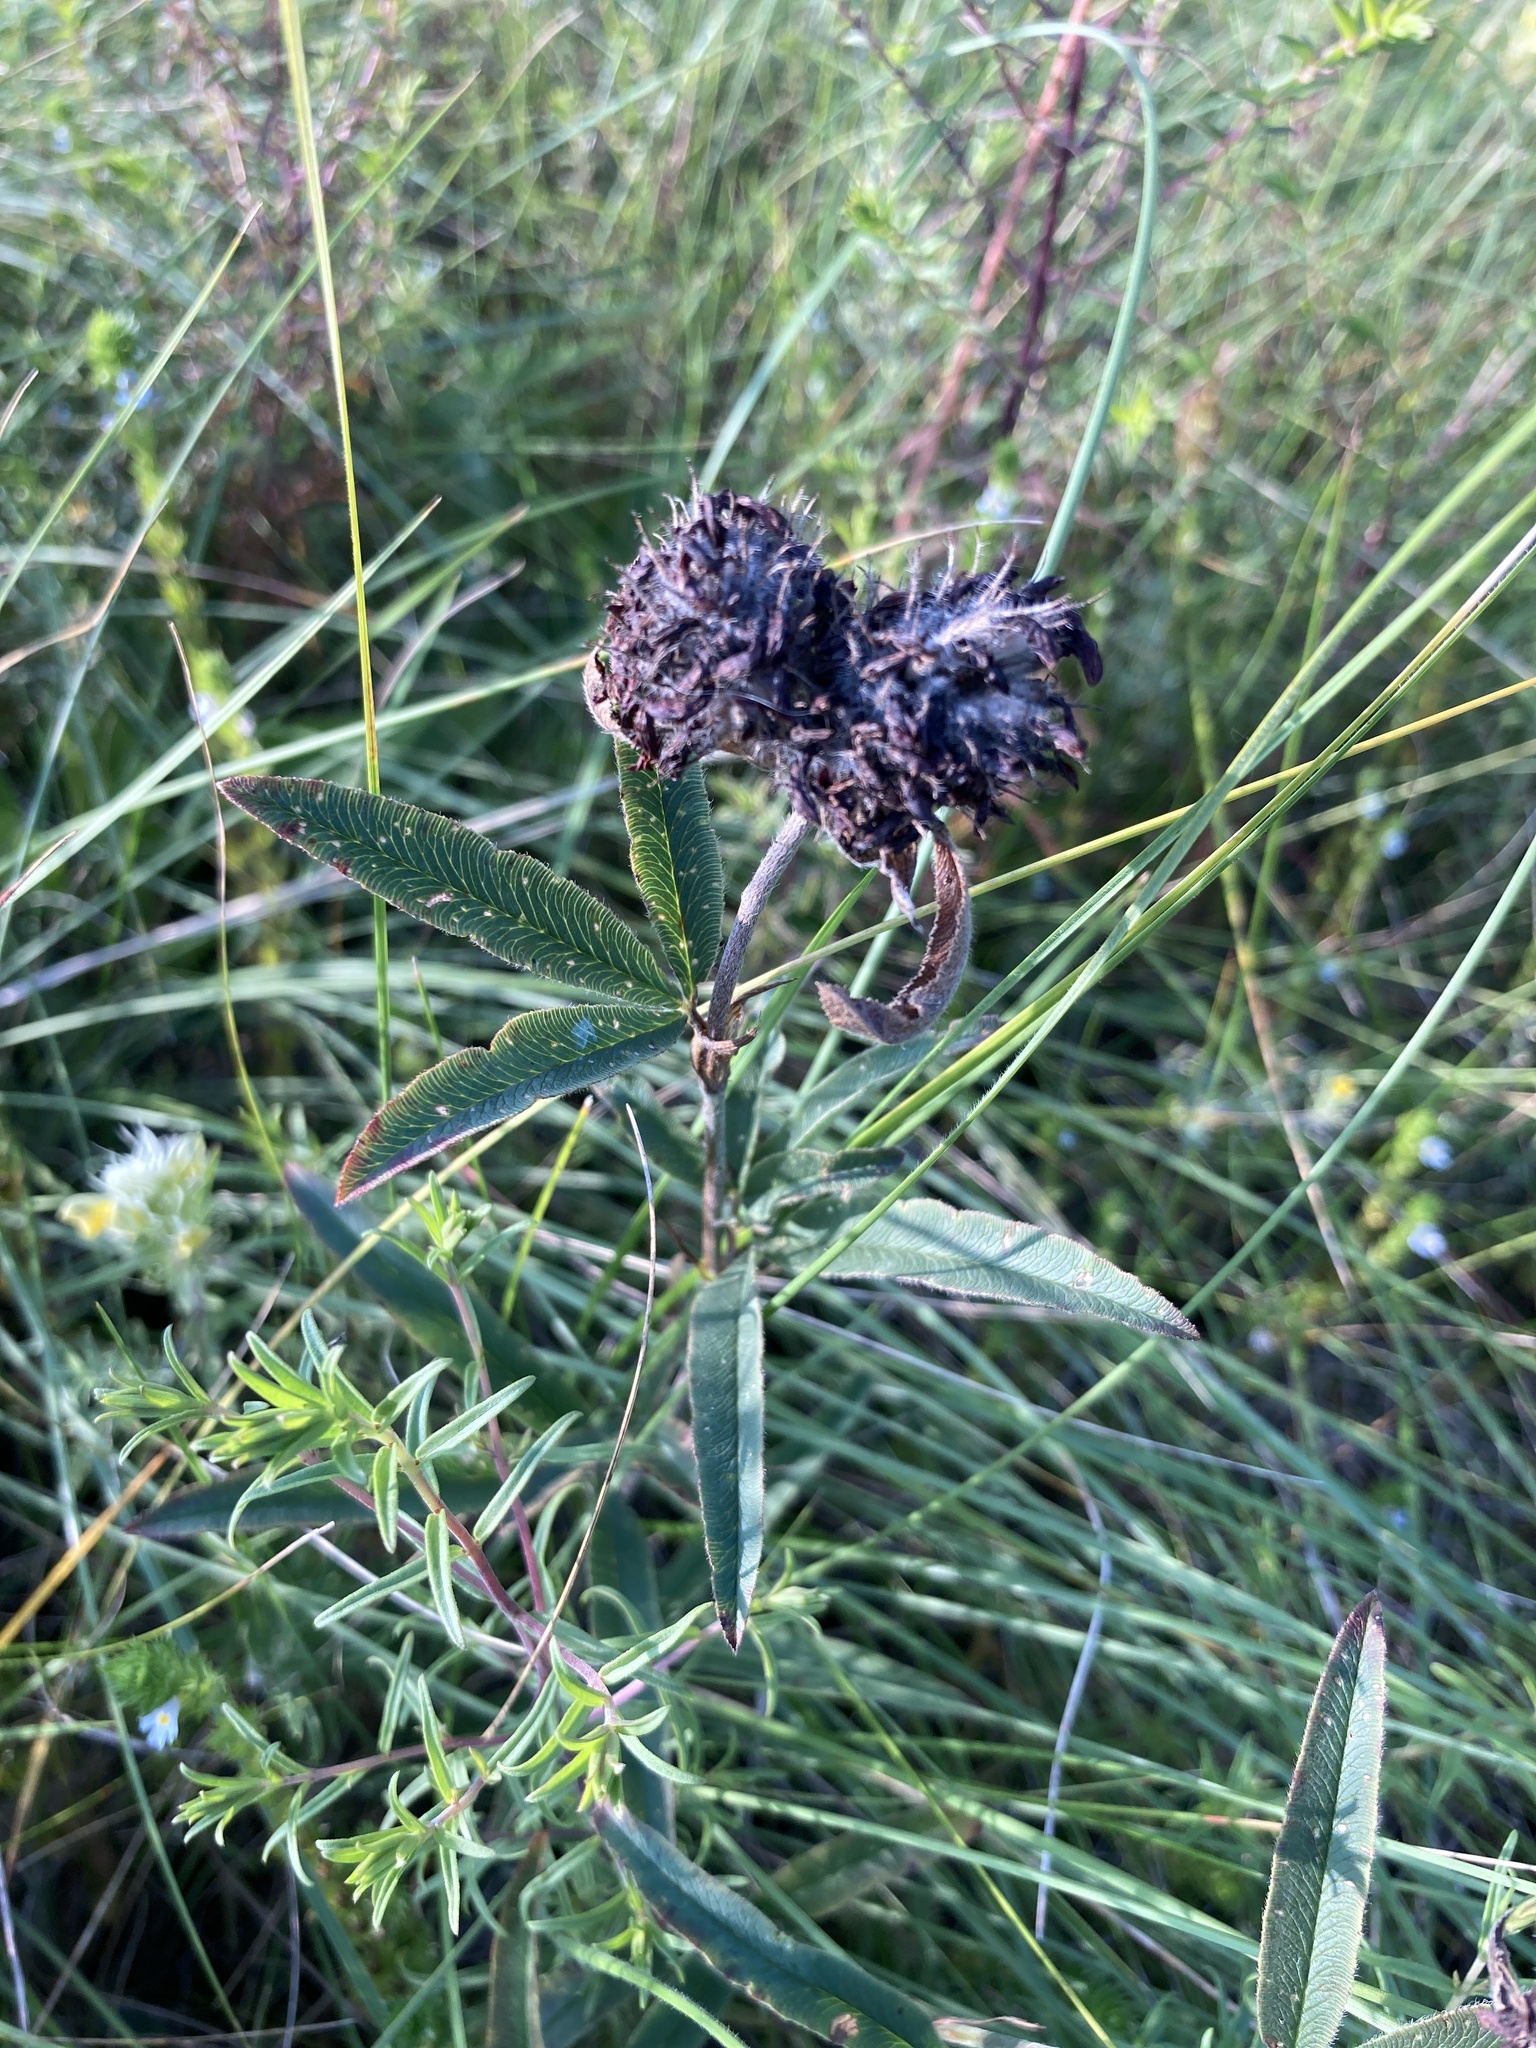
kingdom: Plantae
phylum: Tracheophyta
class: Magnoliopsida
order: Fabales
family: Fabaceae
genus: Trifolium
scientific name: Trifolium alpestre
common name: Owl-head clover
